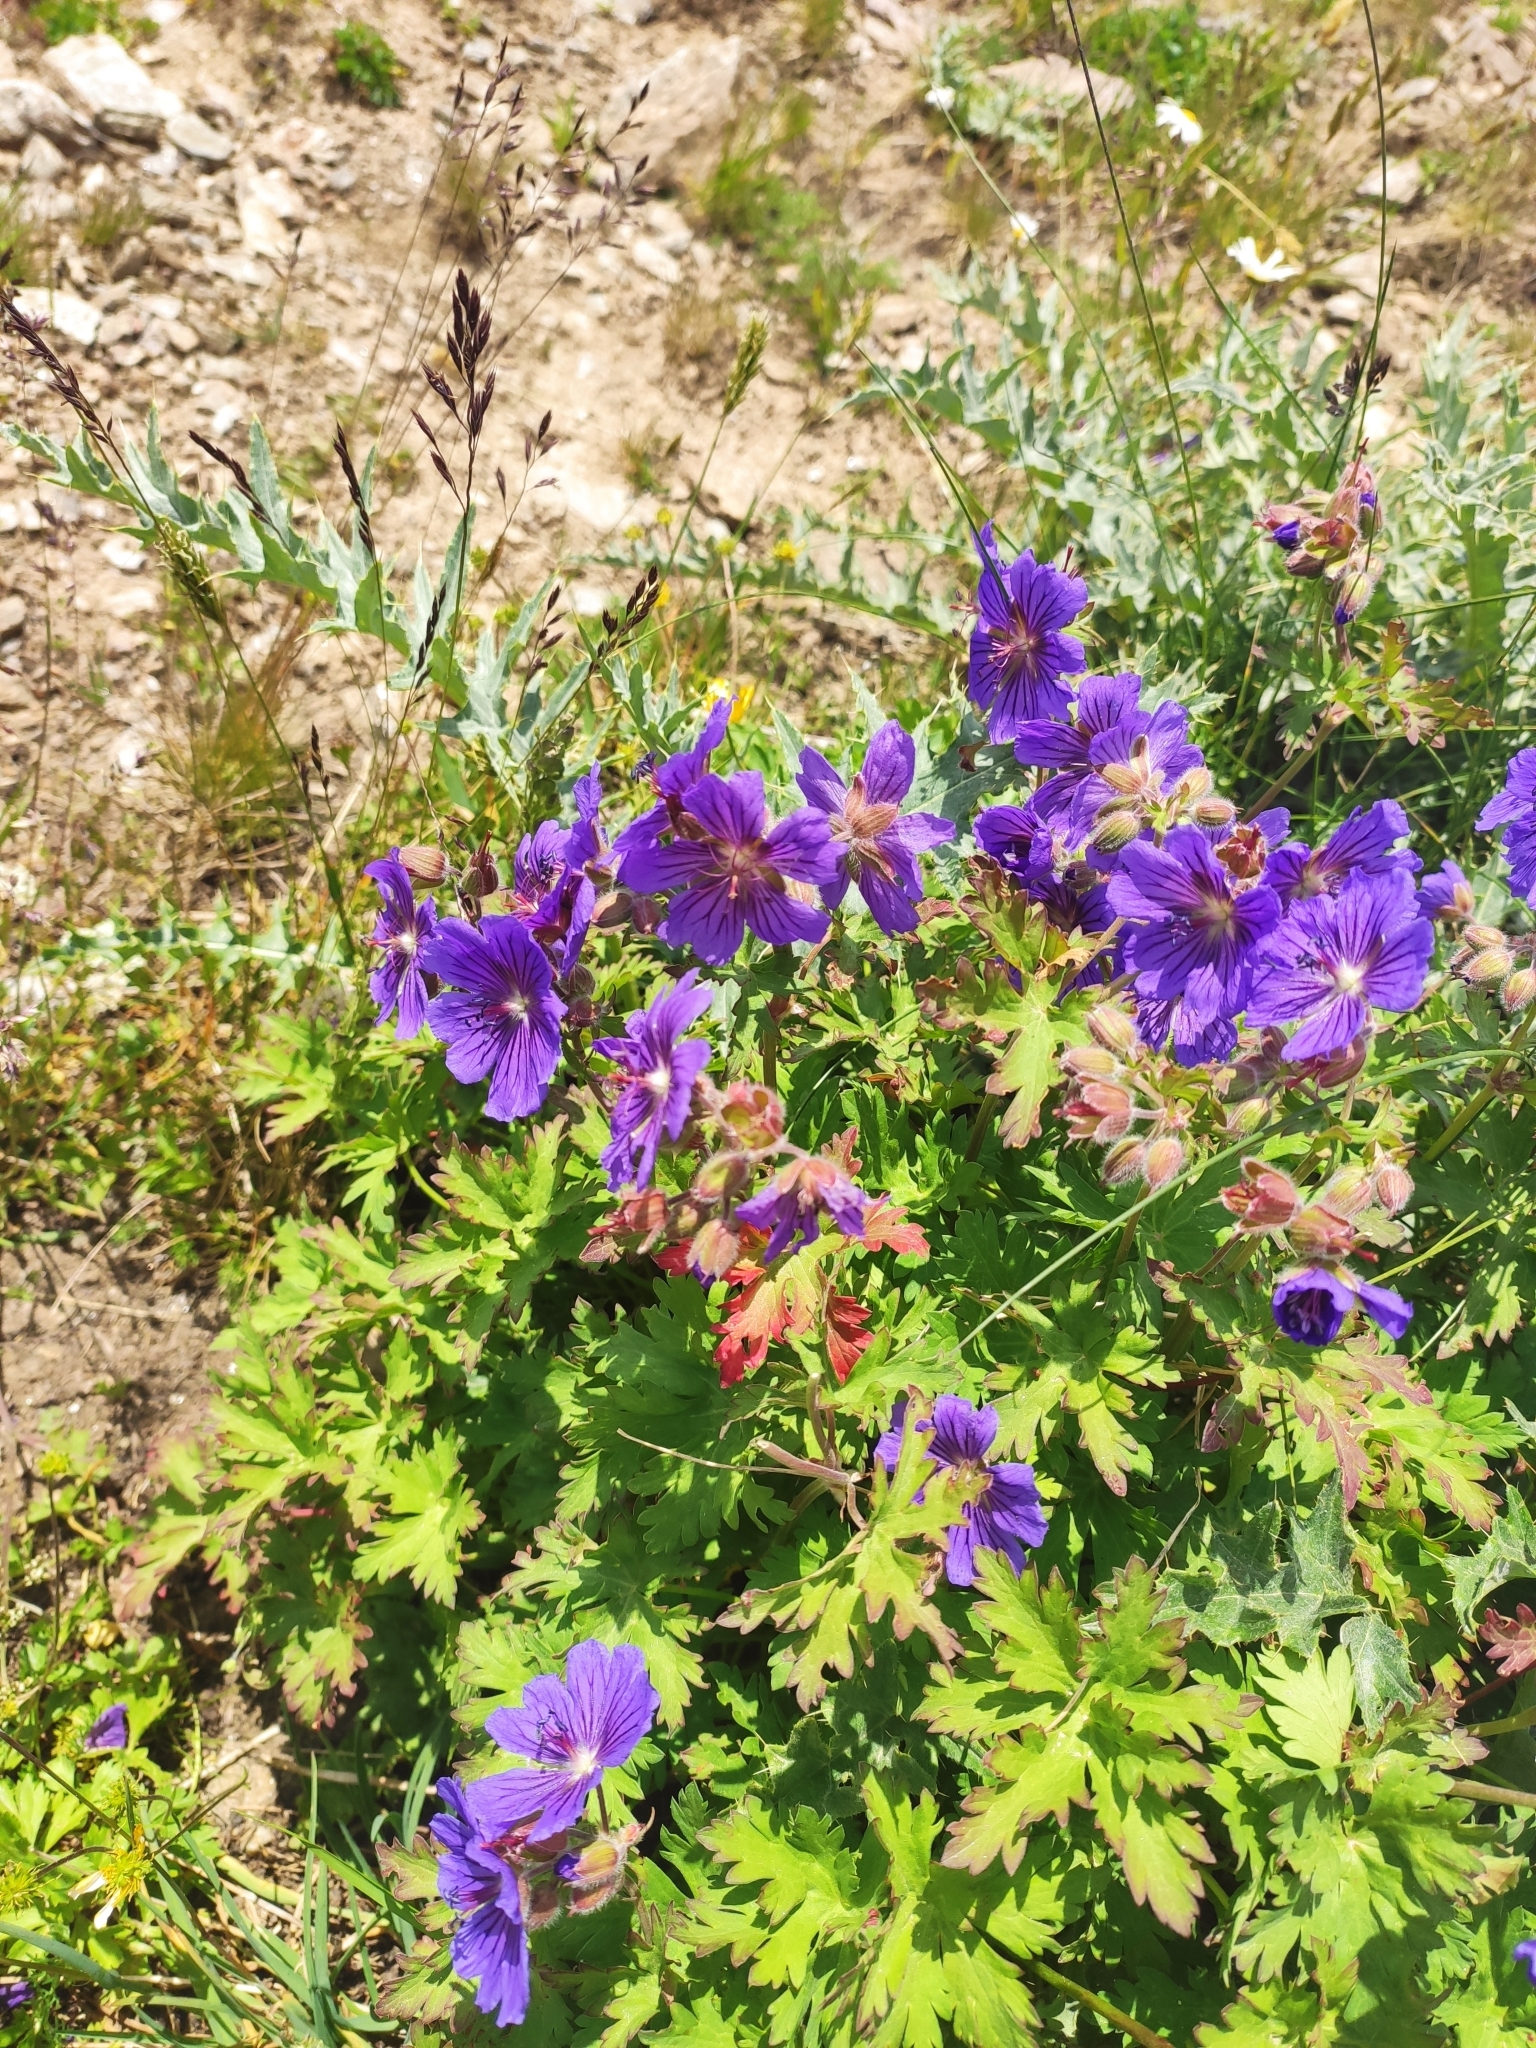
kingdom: Plantae
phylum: Tracheophyta
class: Magnoliopsida
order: Geraniales
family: Geraniaceae
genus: Geranium
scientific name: Geranium gymnocaulon
